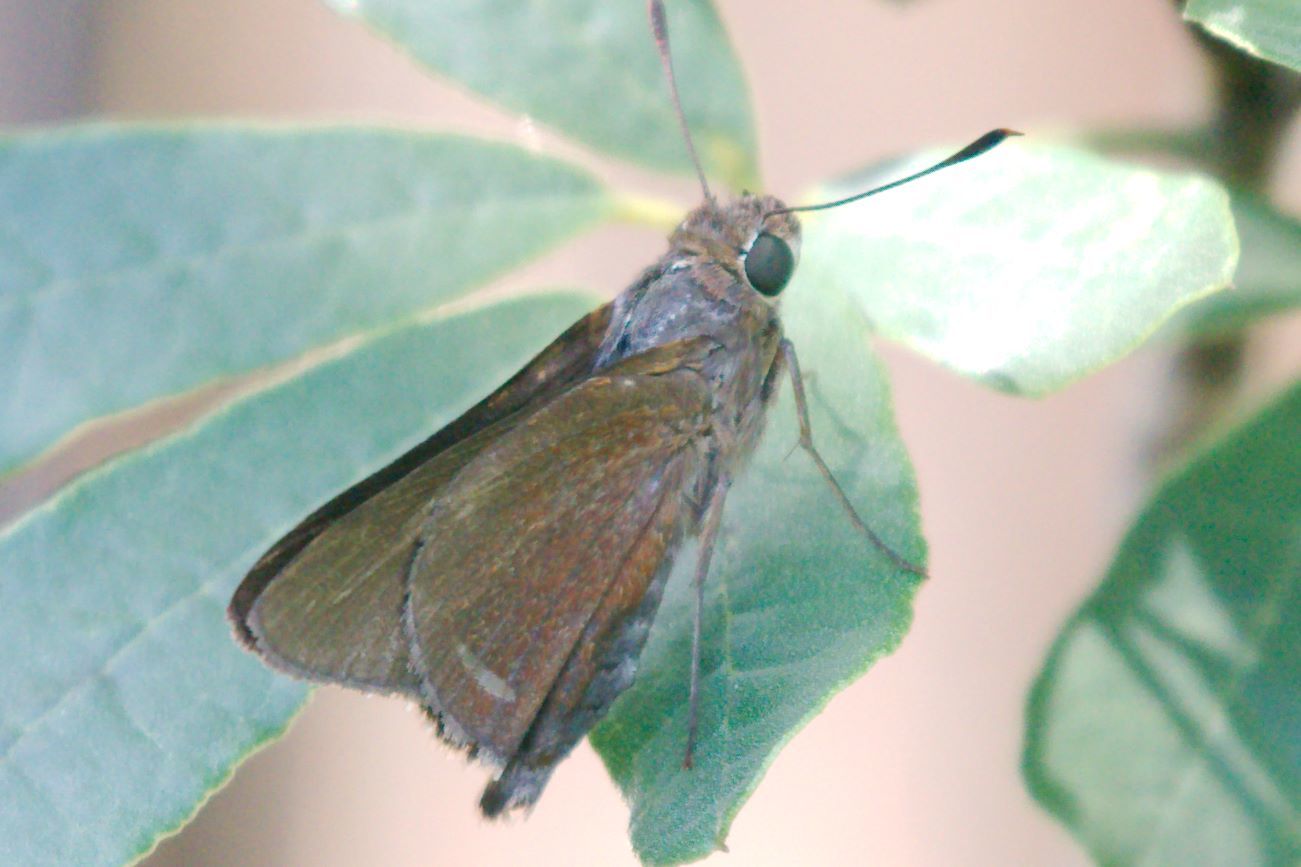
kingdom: Animalia
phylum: Arthropoda
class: Insecta
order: Lepidoptera
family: Hesperiidae
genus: Asbolis
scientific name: Asbolis capucinus
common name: Monk skipper
